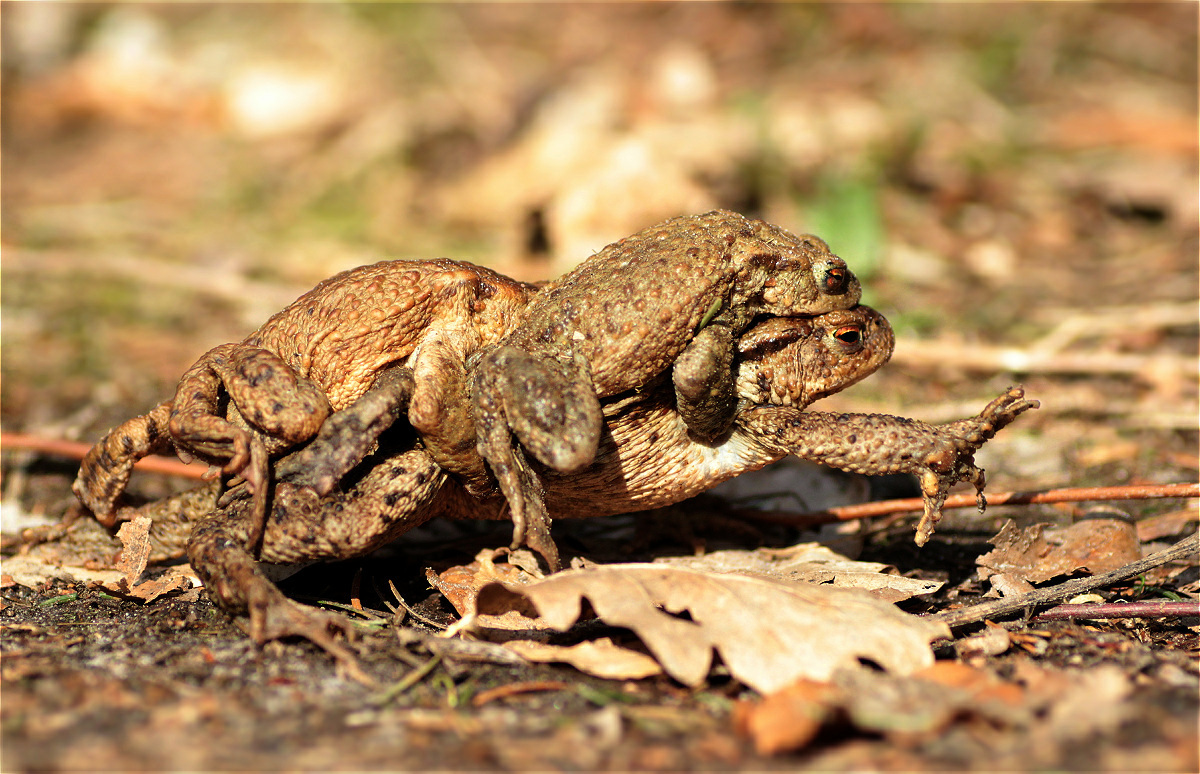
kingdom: Animalia
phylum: Chordata
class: Amphibia
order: Anura
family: Bufonidae
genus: Bufo
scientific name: Bufo bufo
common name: Common toad
